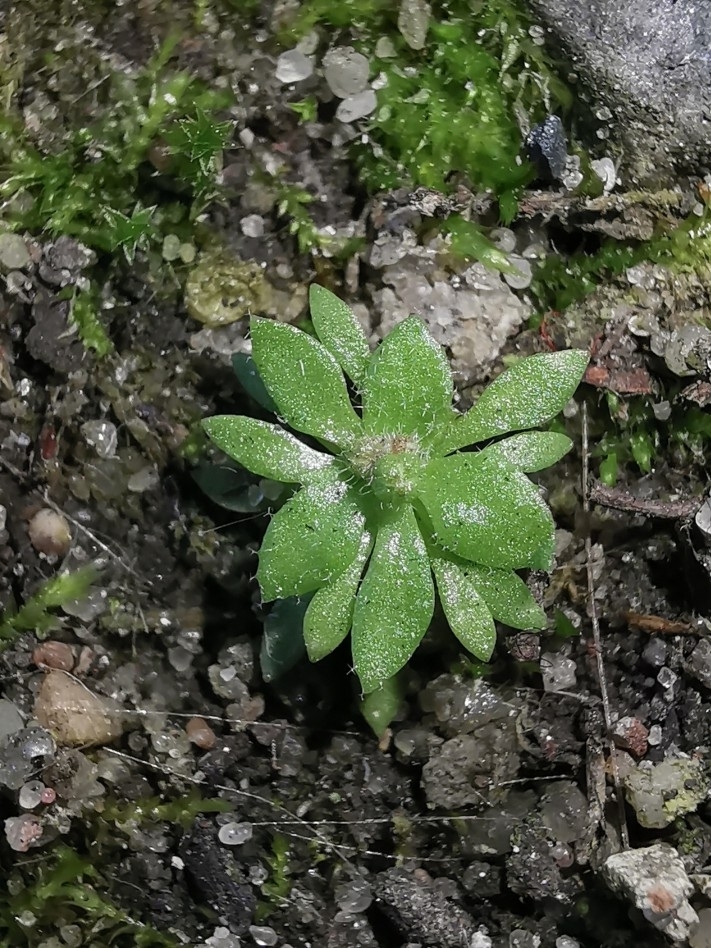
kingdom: Plantae
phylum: Tracheophyta
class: Magnoliopsida
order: Brassicales
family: Brassicaceae
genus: Draba
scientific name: Draba verna
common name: Spring draba
